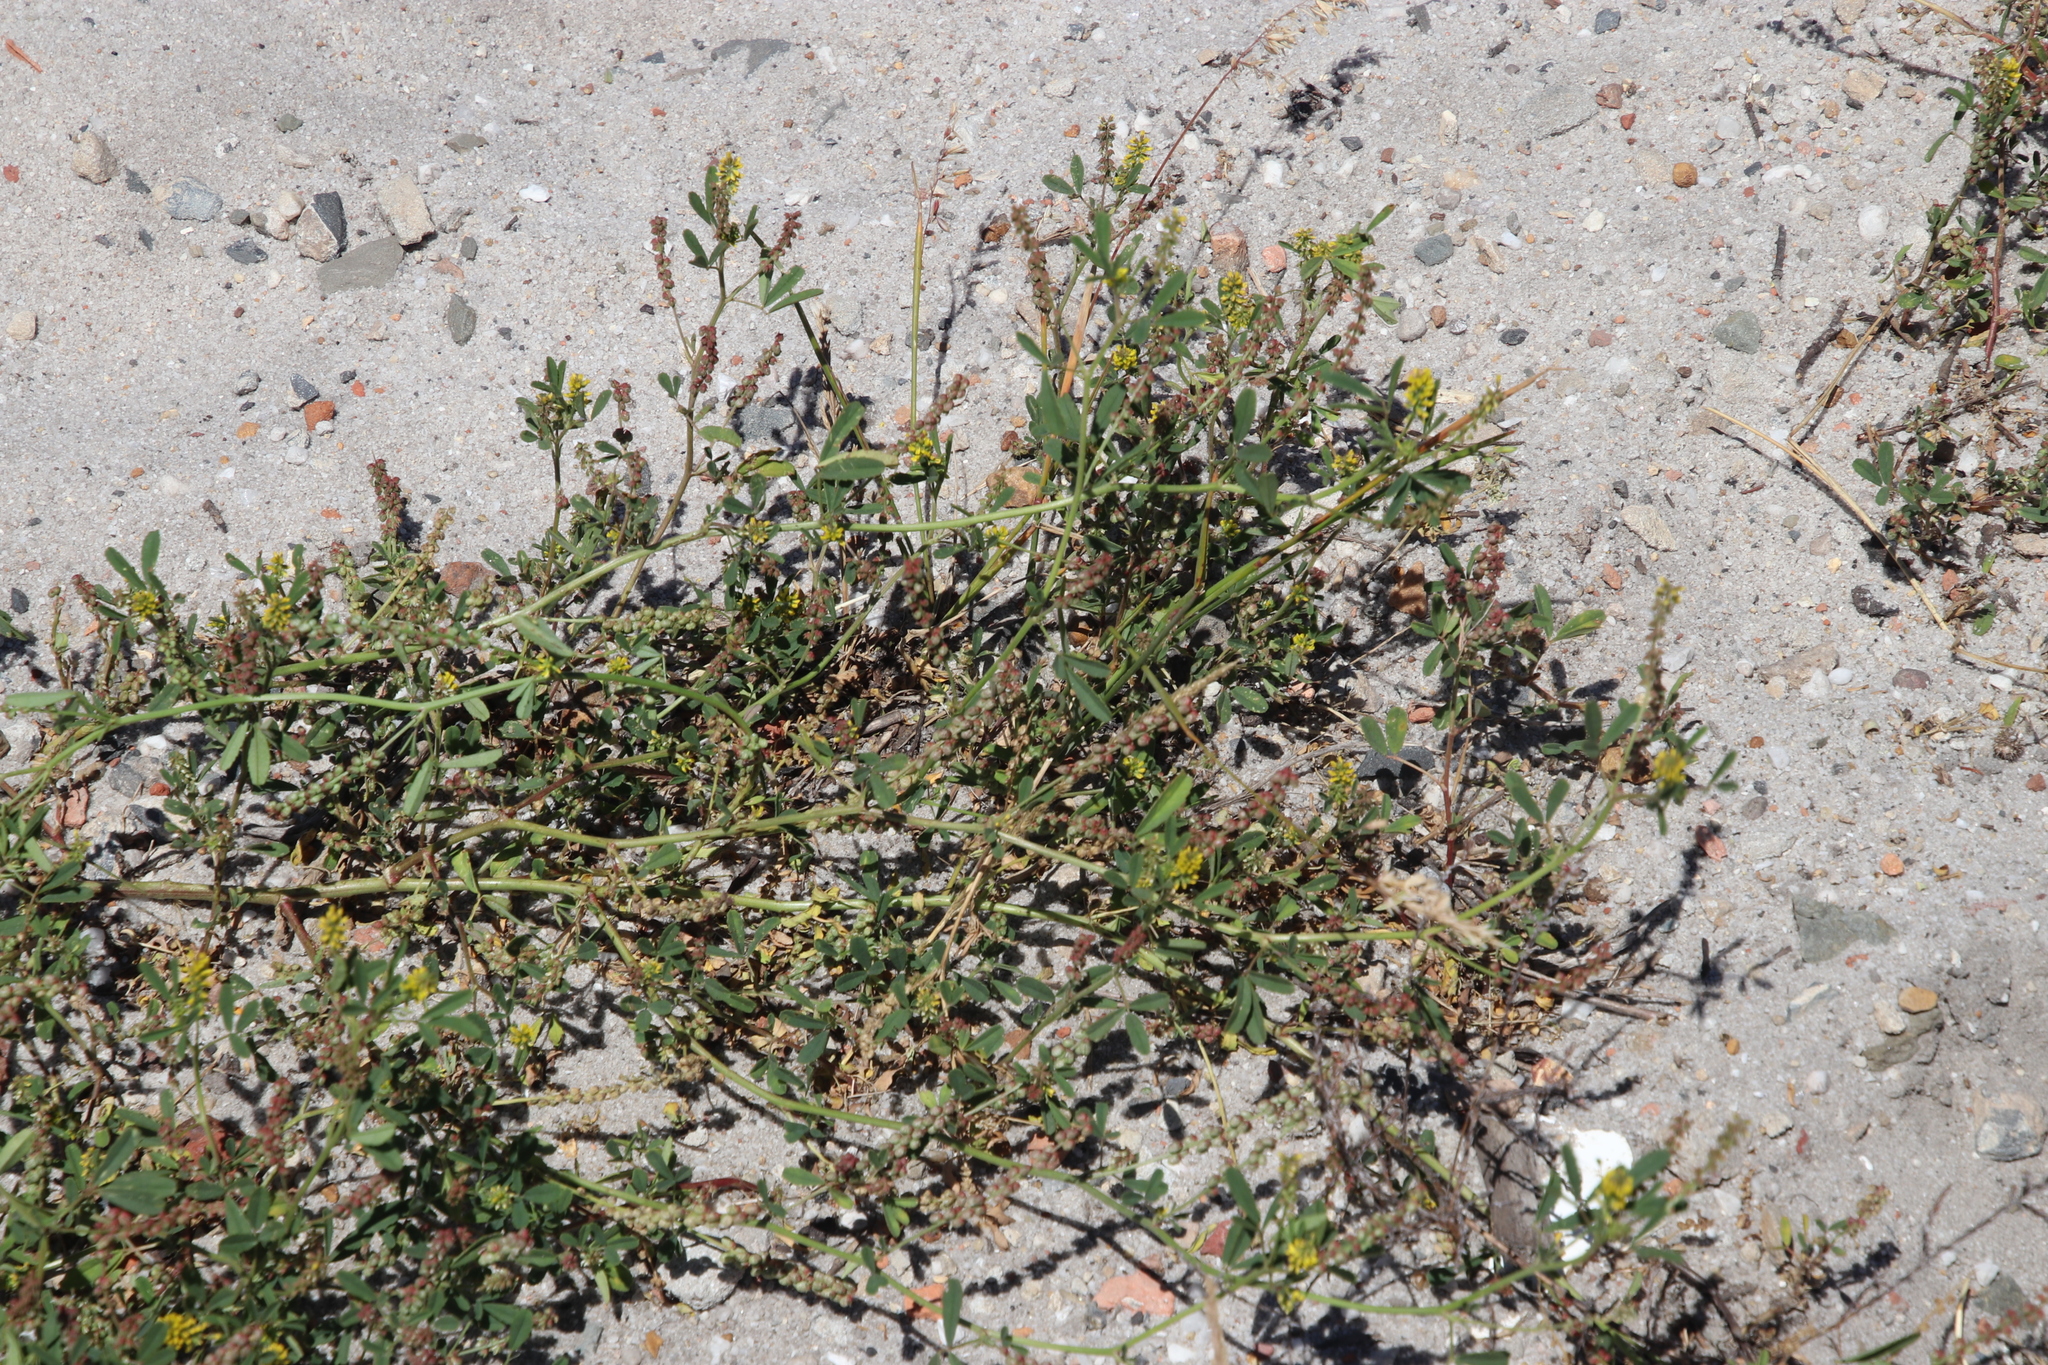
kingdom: Plantae
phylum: Tracheophyta
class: Magnoliopsida
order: Fabales
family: Fabaceae
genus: Melilotus
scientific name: Melilotus indicus
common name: Small melilot
